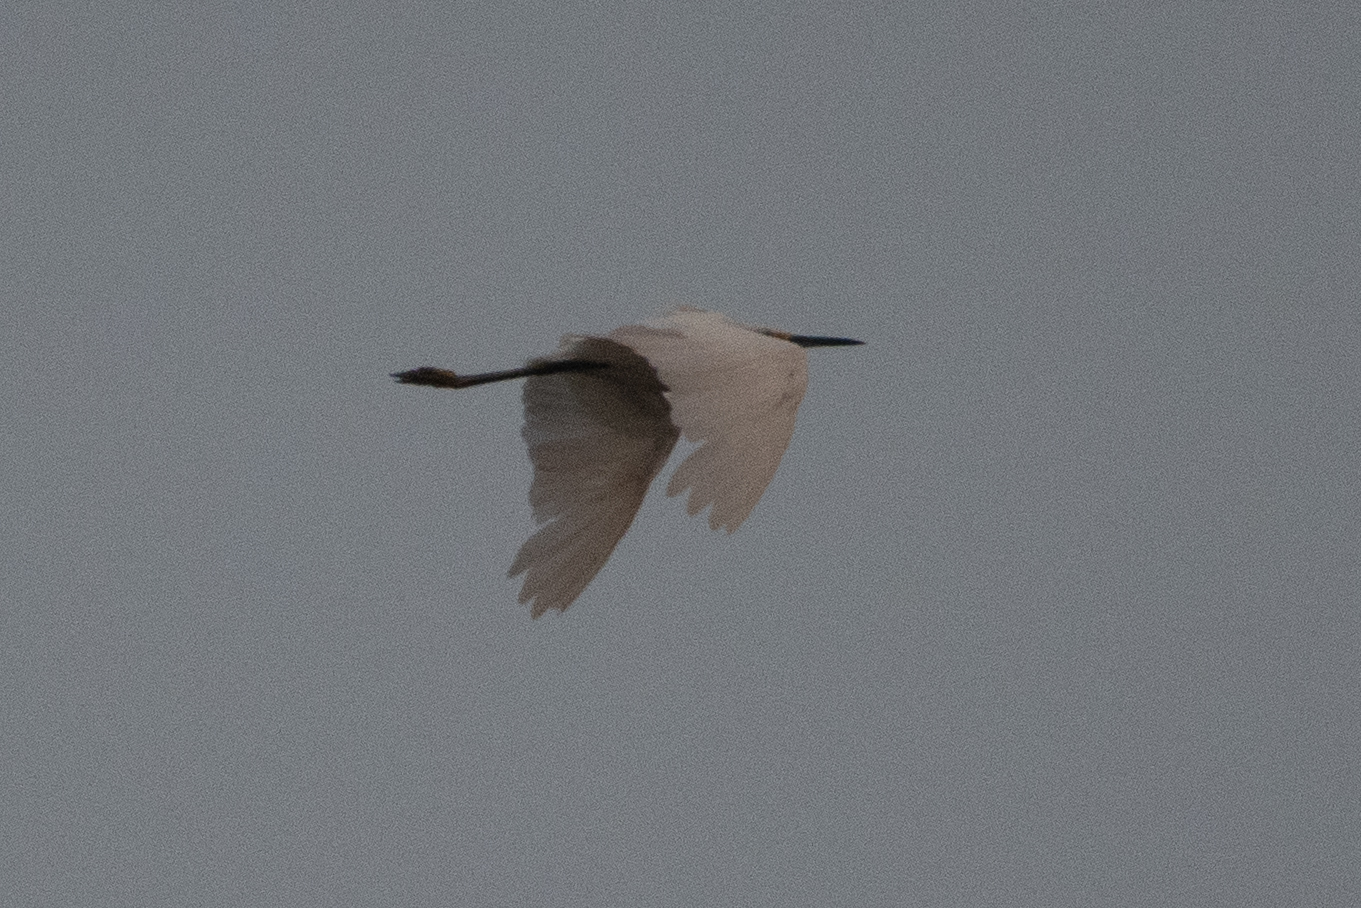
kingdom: Animalia
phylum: Chordata
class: Aves
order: Pelecaniformes
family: Ardeidae
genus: Egretta
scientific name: Egretta thula
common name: Snowy egret
